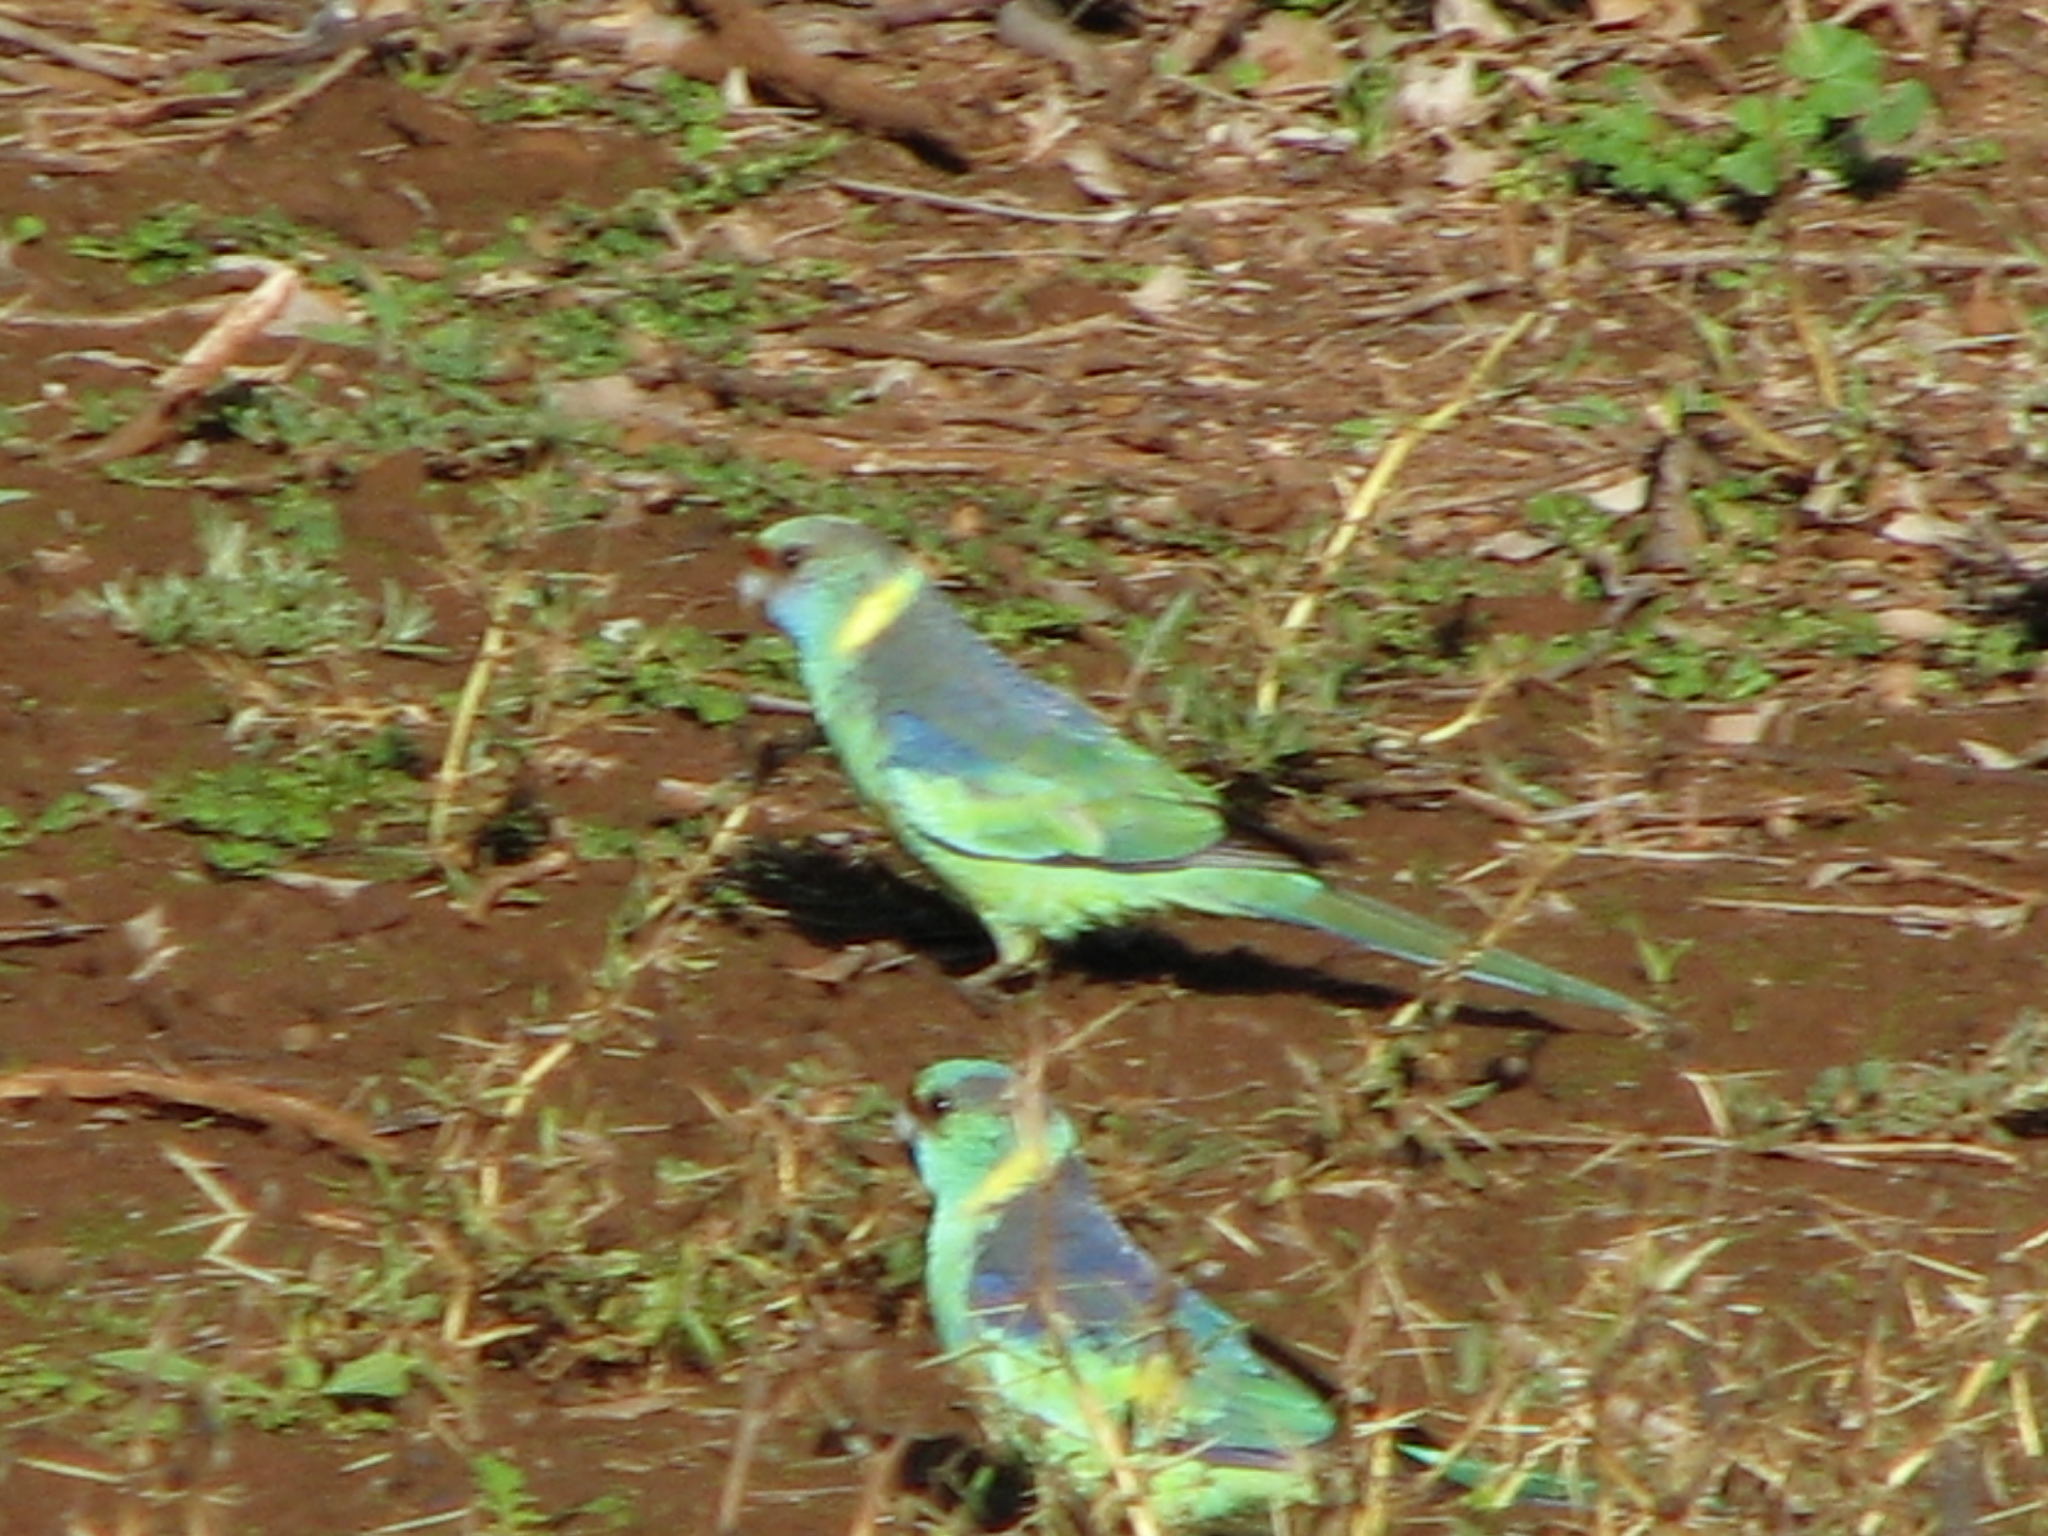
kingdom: Animalia
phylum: Chordata
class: Aves
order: Psittaciformes
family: Psittacidae
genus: Barnardius
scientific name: Barnardius zonarius
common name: Australian ringneck
